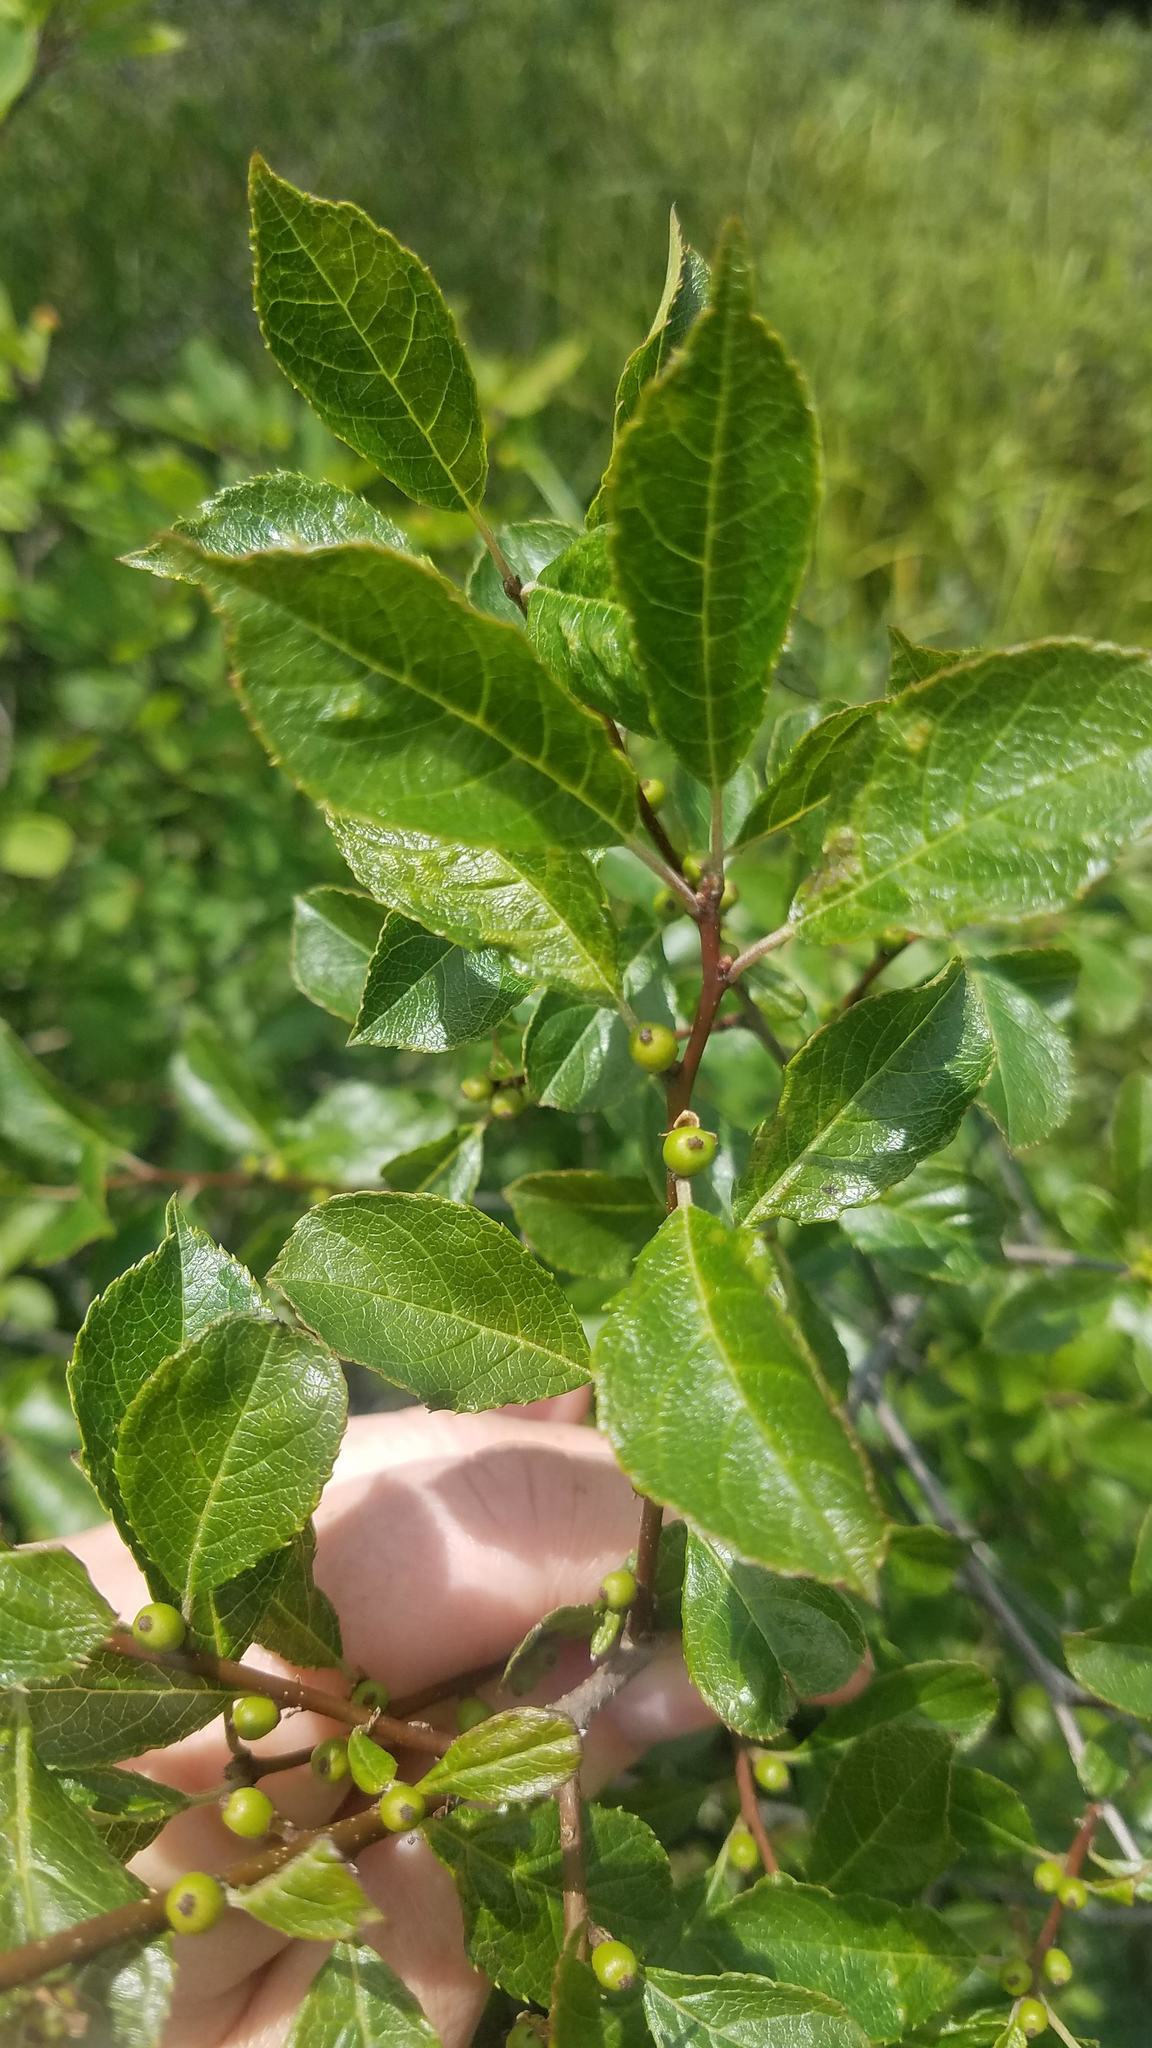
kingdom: Plantae
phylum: Tracheophyta
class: Magnoliopsida
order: Aquifoliales
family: Aquifoliaceae
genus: Ilex
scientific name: Ilex verticillata
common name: Virginia winterberry
